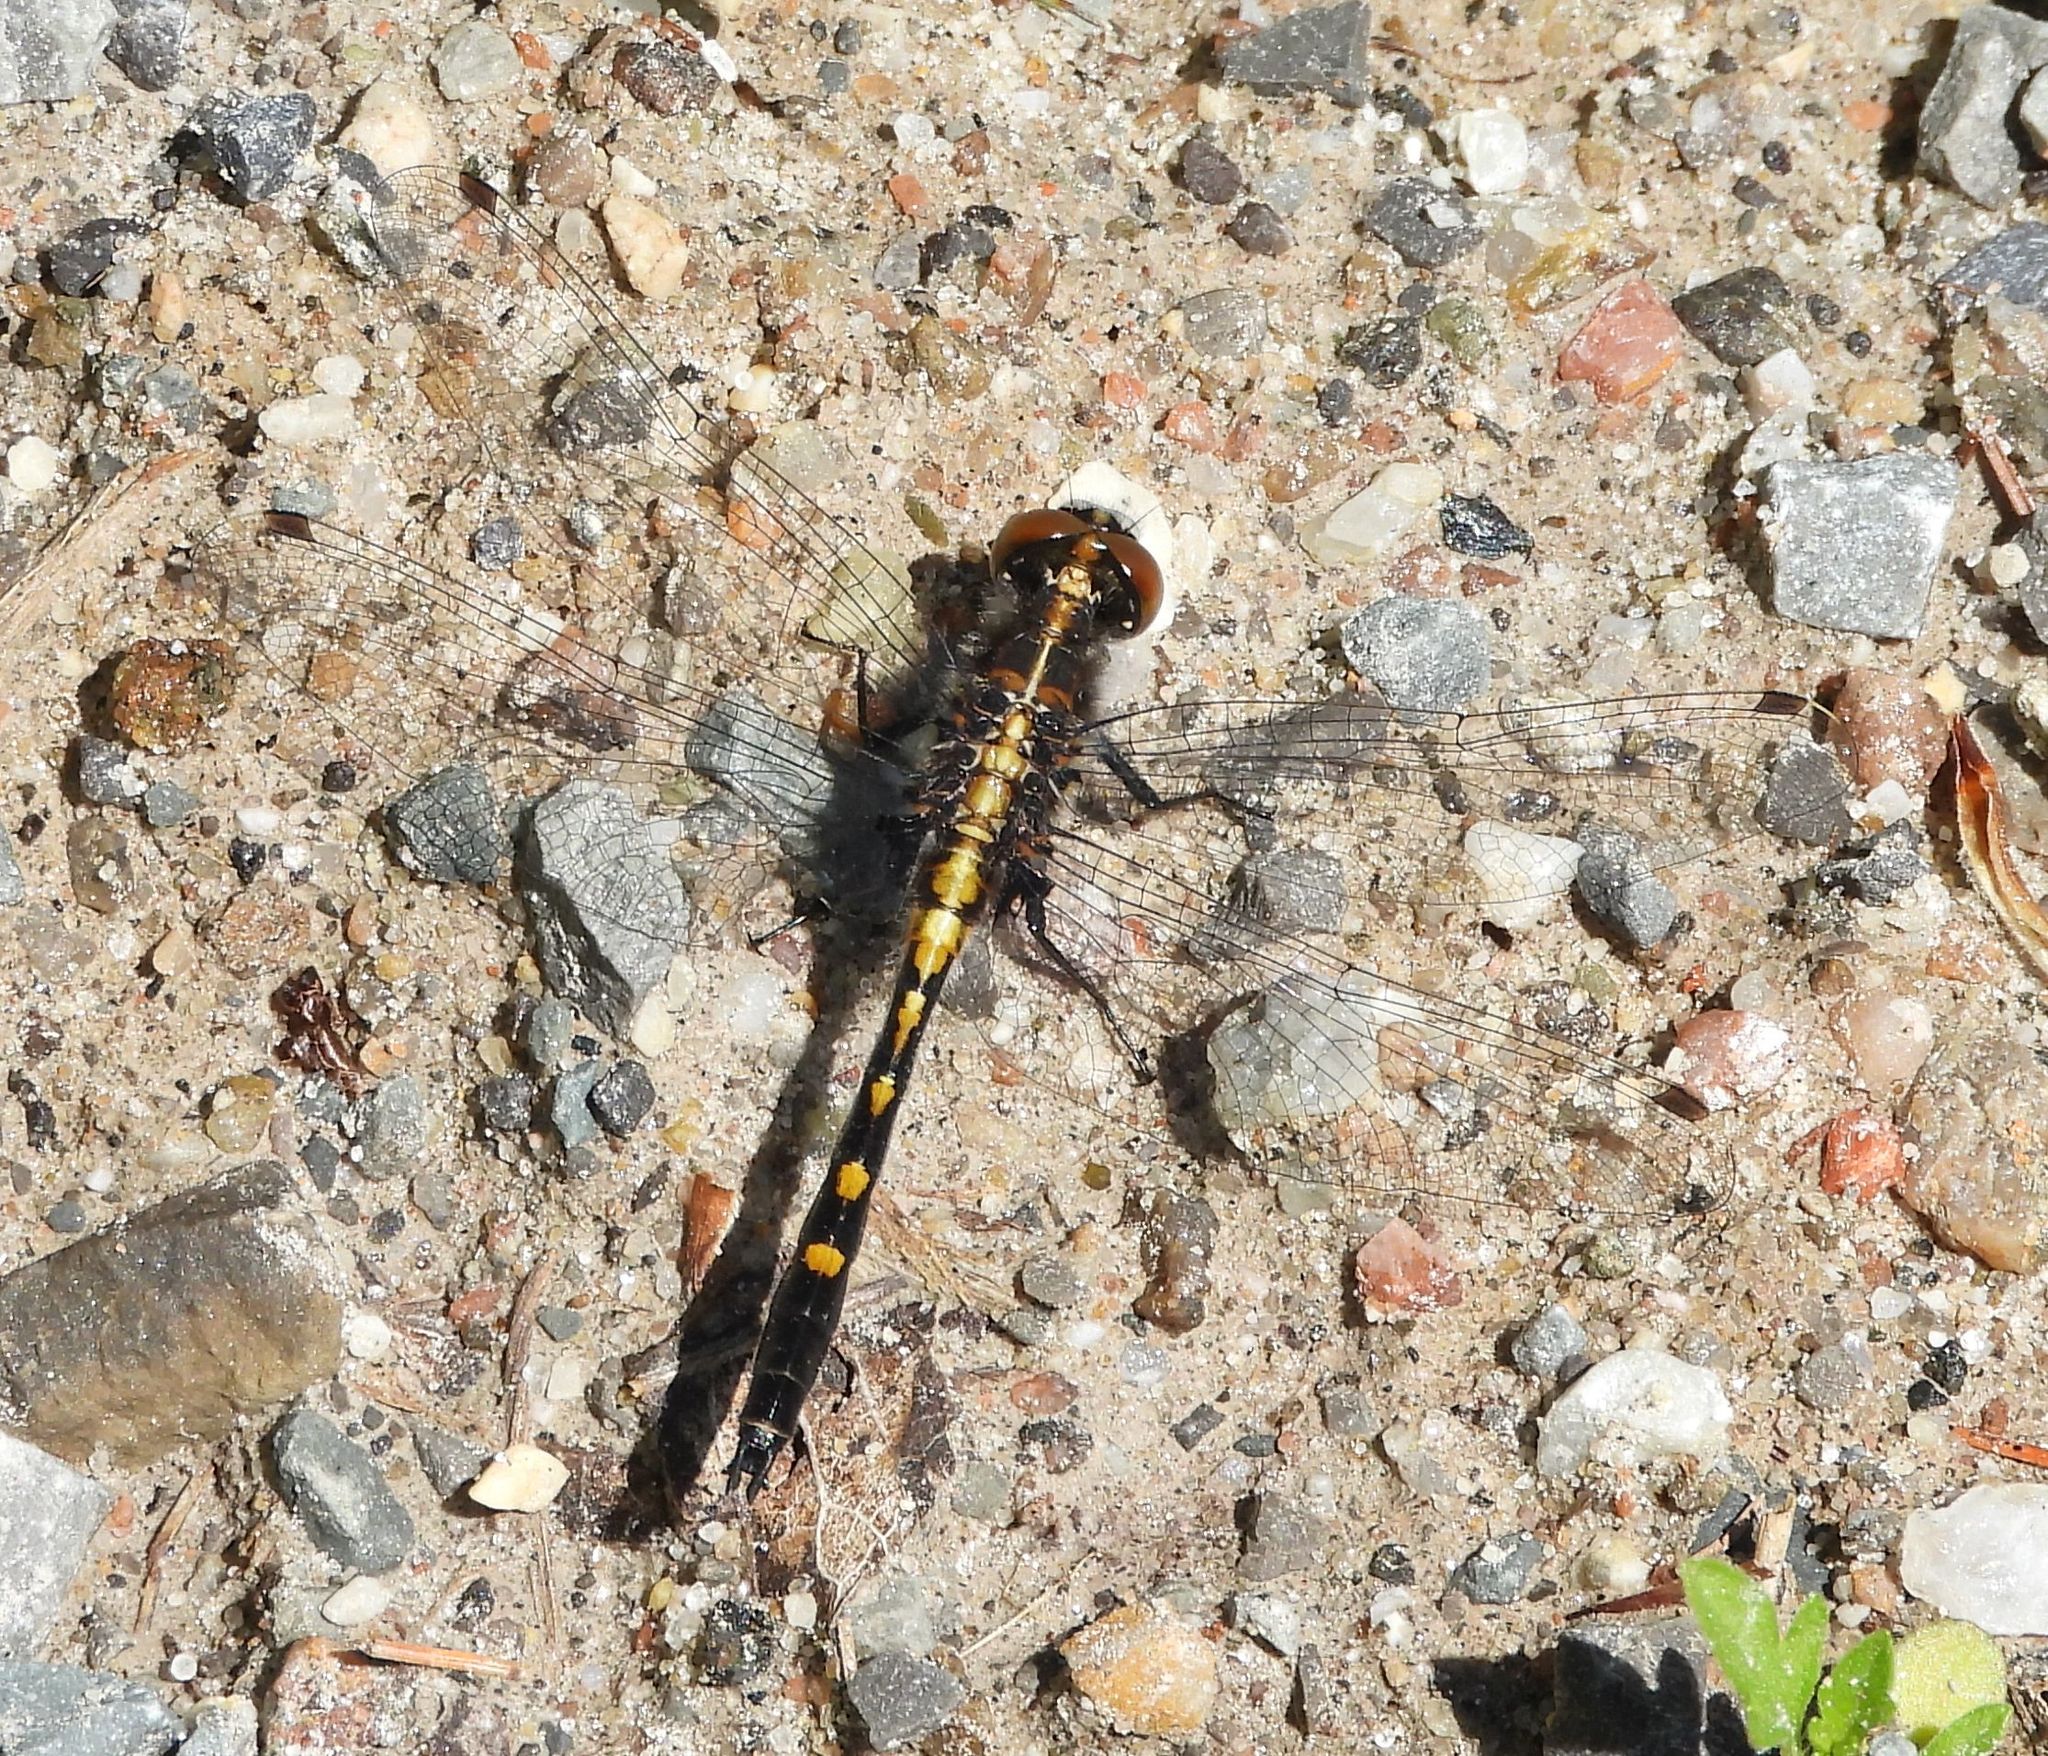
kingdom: Animalia
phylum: Arthropoda
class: Insecta
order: Odonata
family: Libellulidae
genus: Leucorrhinia
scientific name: Leucorrhinia intacta
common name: Dot-tailed whiteface
